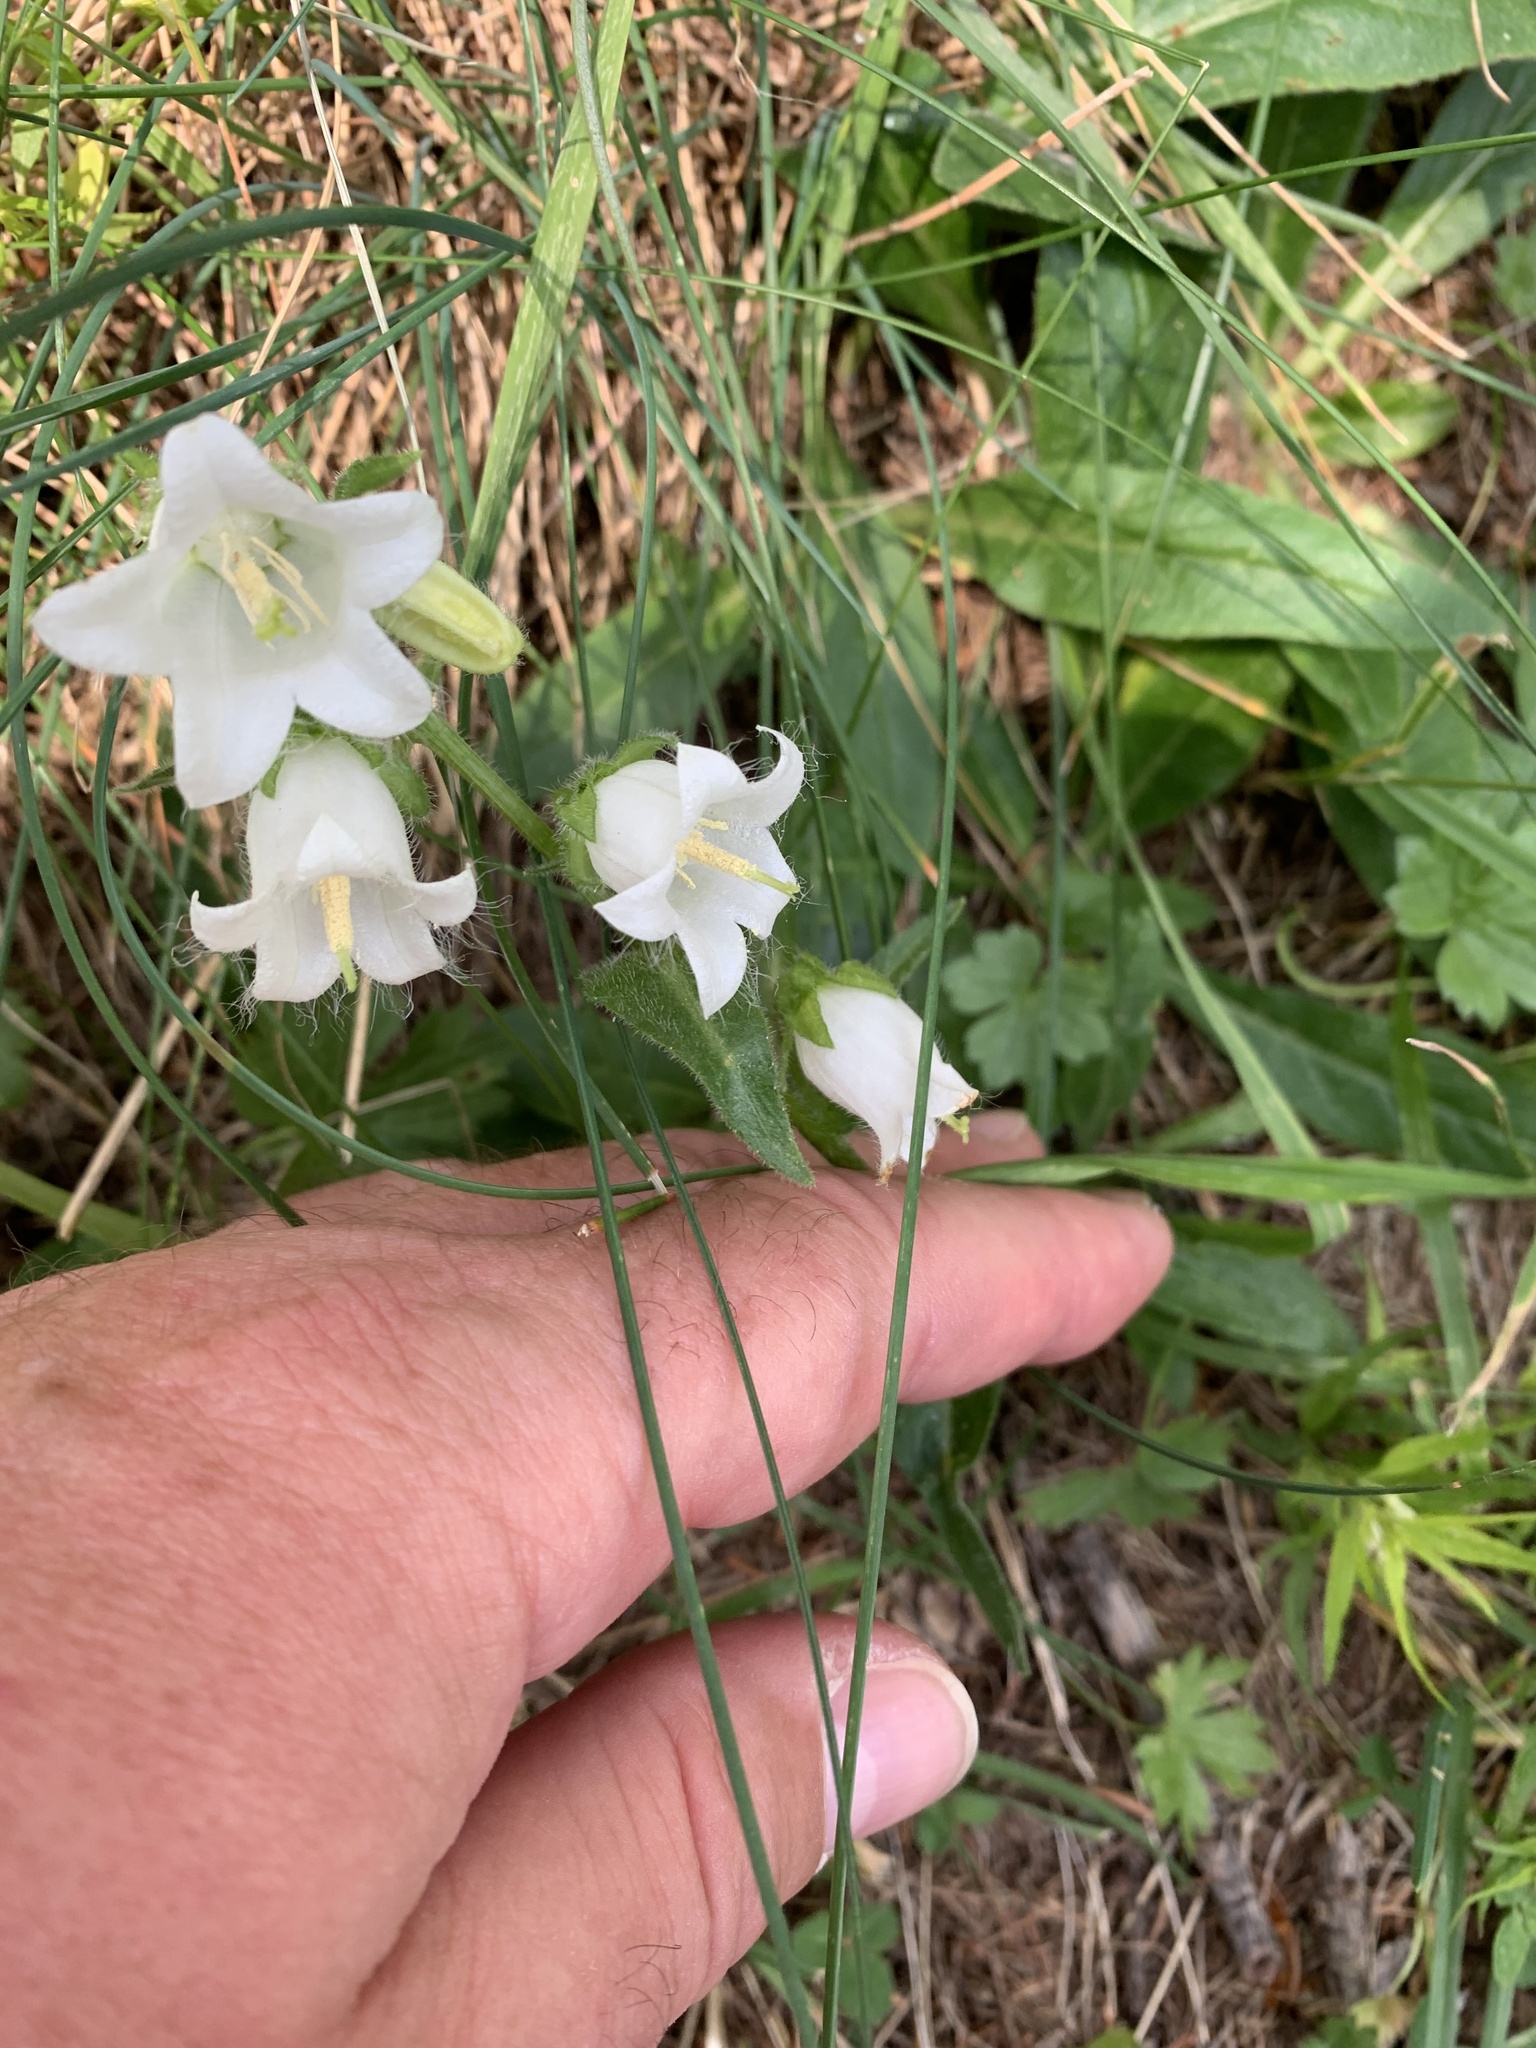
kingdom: Plantae
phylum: Tracheophyta
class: Magnoliopsida
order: Asterales
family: Campanulaceae
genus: Campanula
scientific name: Campanula barbata
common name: Bearded bellflower
